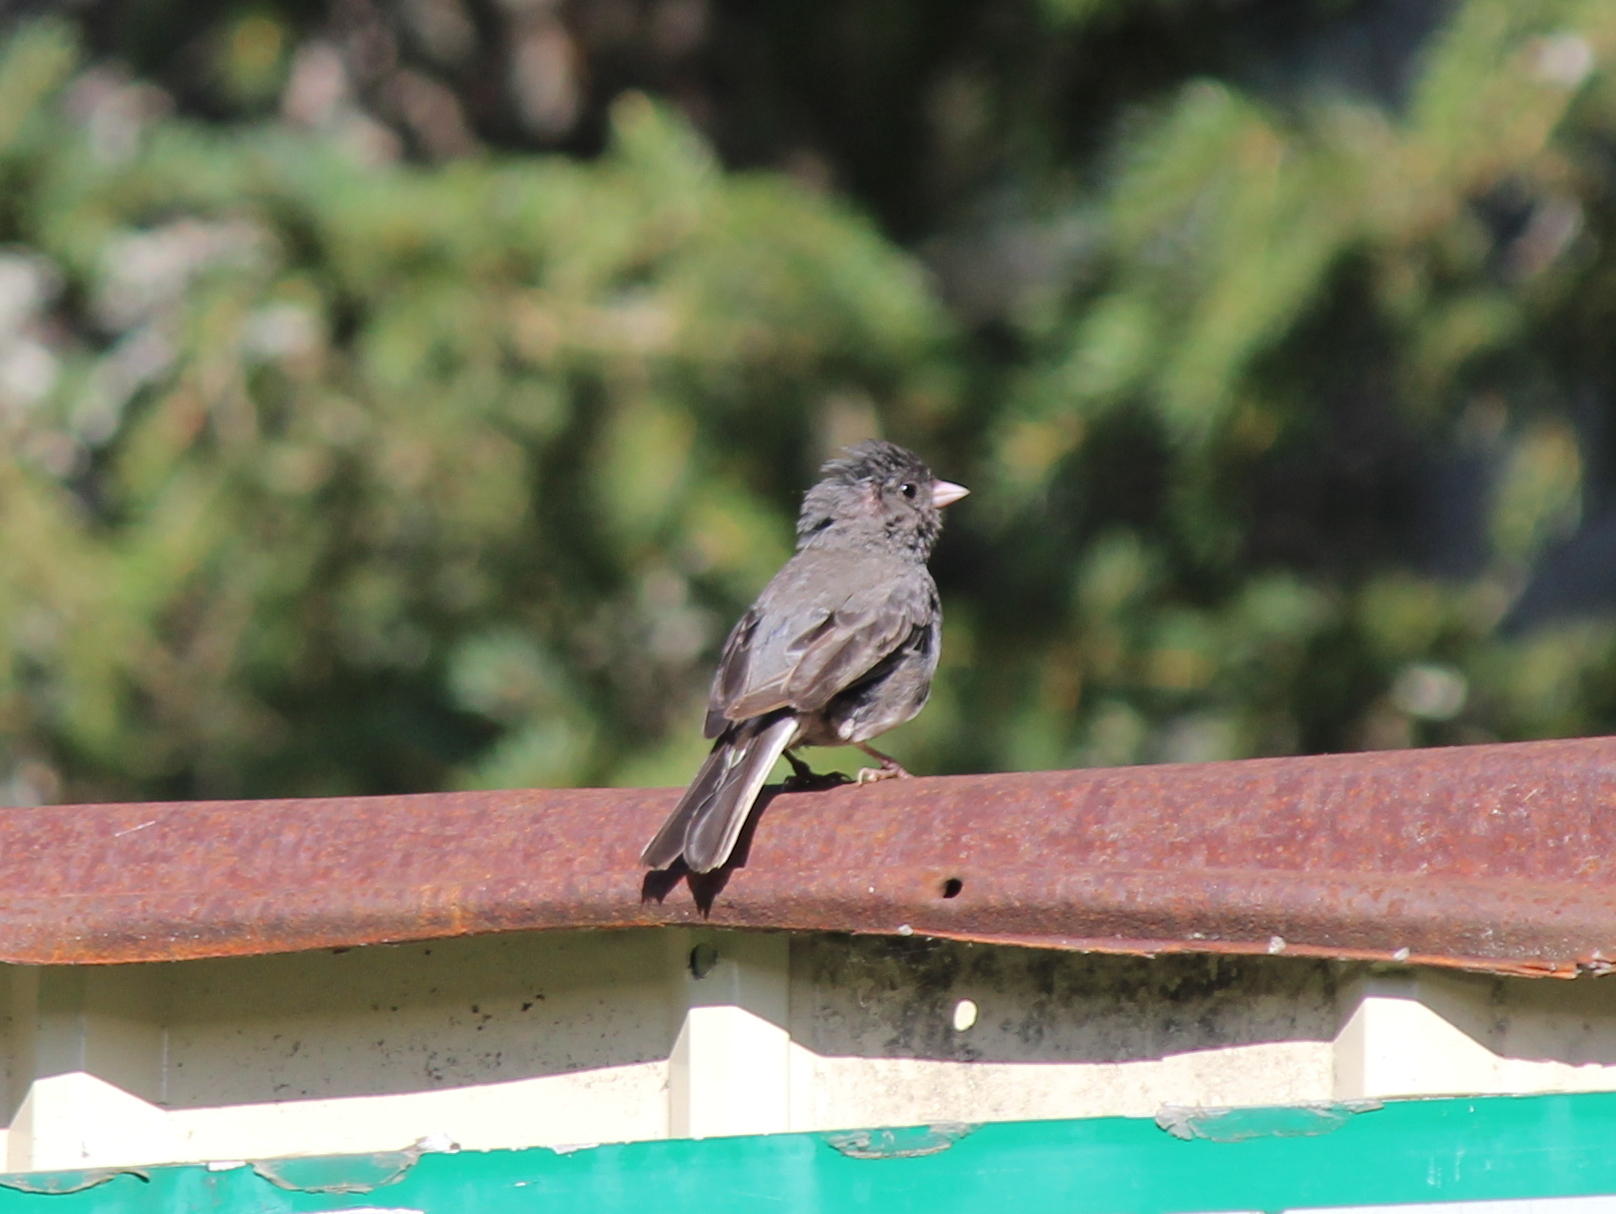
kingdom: Animalia
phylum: Chordata
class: Aves
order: Passeriformes
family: Passerellidae
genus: Junco
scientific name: Junco hyemalis
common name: Dark-eyed junco
